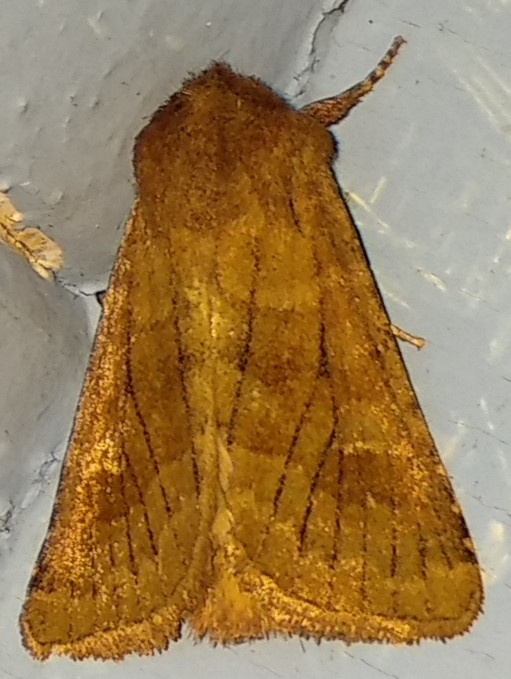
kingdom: Animalia
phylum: Arthropoda
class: Insecta
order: Lepidoptera
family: Noctuidae
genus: Nephelodes
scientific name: Nephelodes minians
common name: Bronzed cutworm
